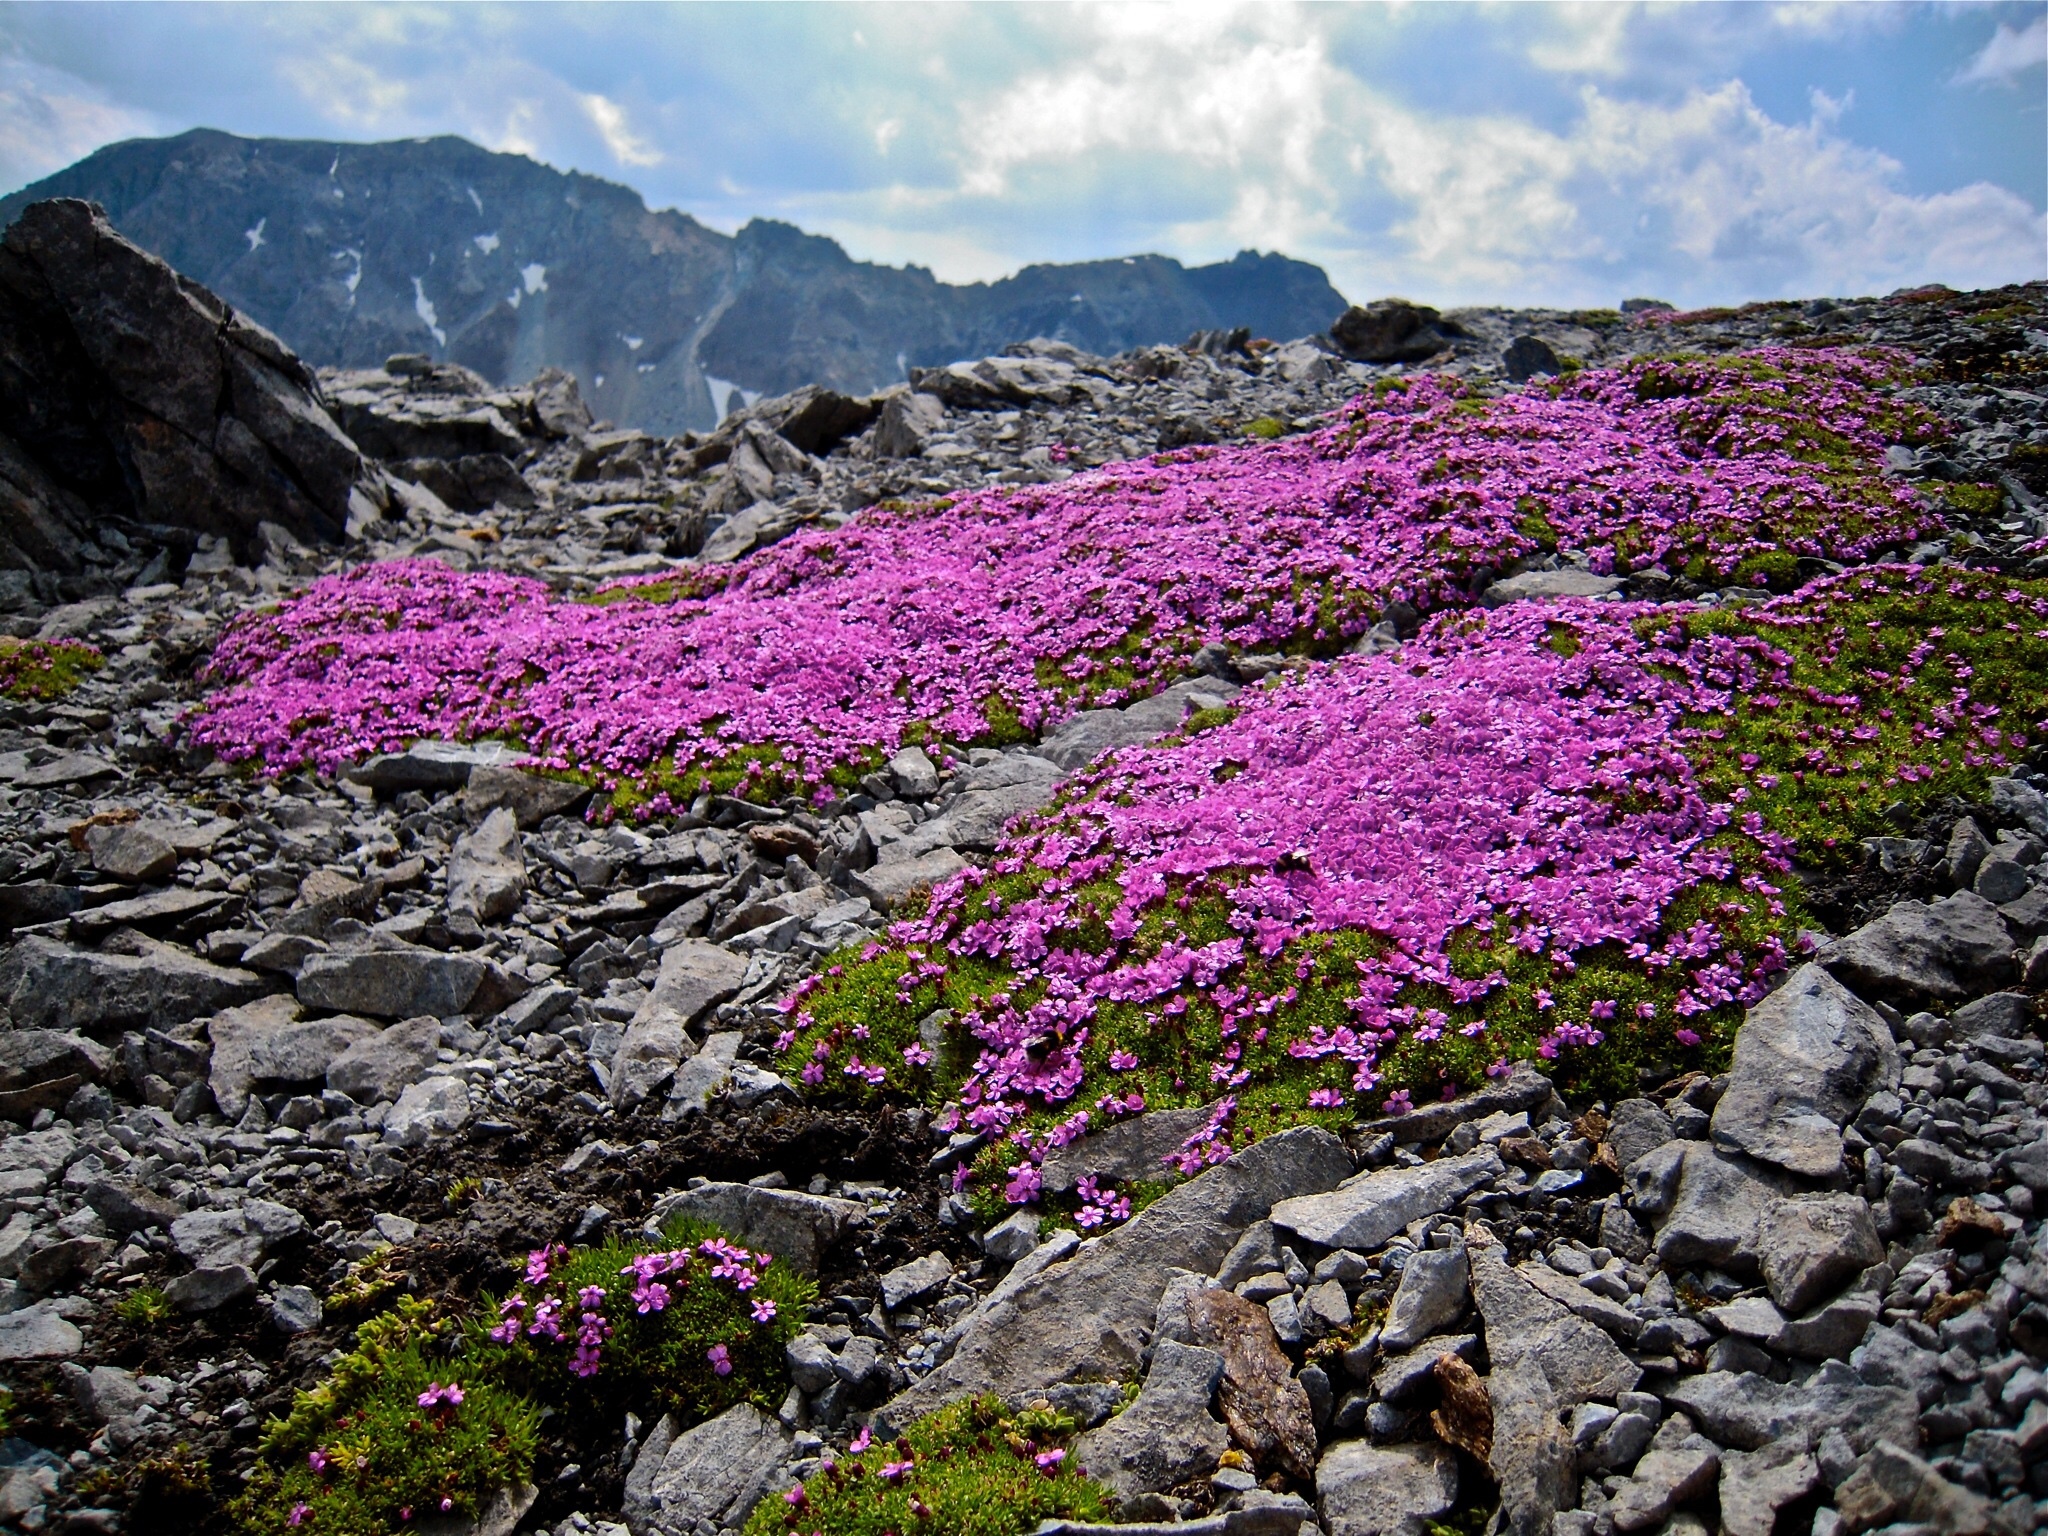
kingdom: Plantae
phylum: Tracheophyta
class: Magnoliopsida
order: Caryophyllales
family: Caryophyllaceae
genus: Silene
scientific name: Silene acaulis
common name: Moss campion
